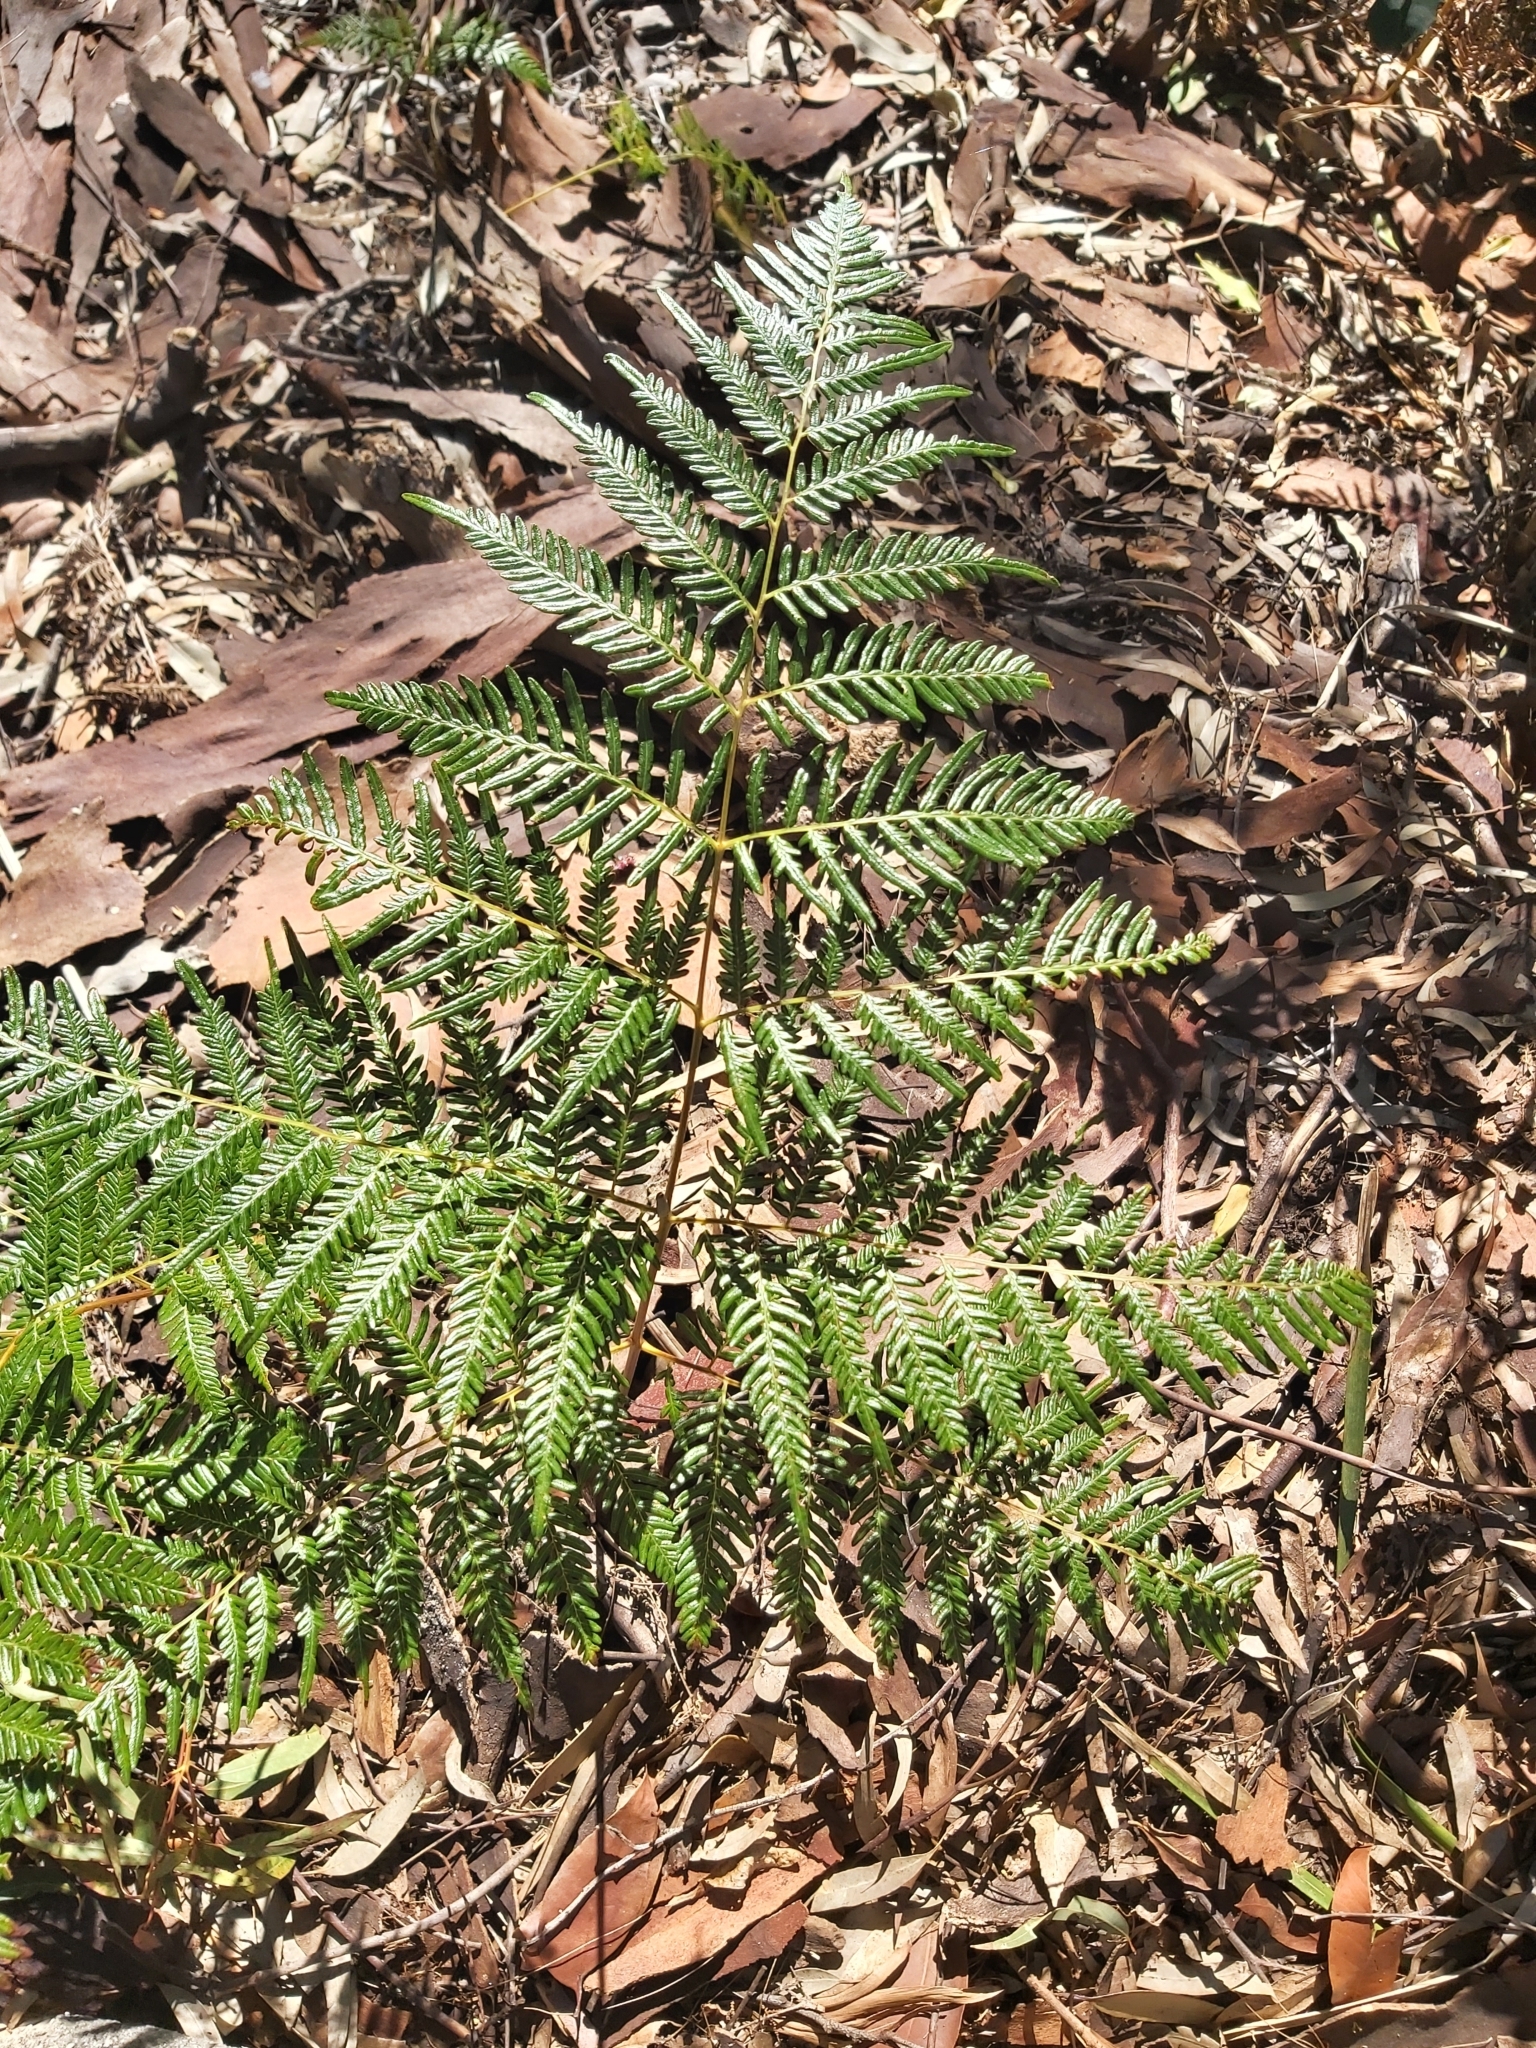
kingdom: Plantae
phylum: Tracheophyta
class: Polypodiopsida
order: Polypodiales
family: Dennstaedtiaceae
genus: Pteridium
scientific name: Pteridium esculentum
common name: Bracken fern
